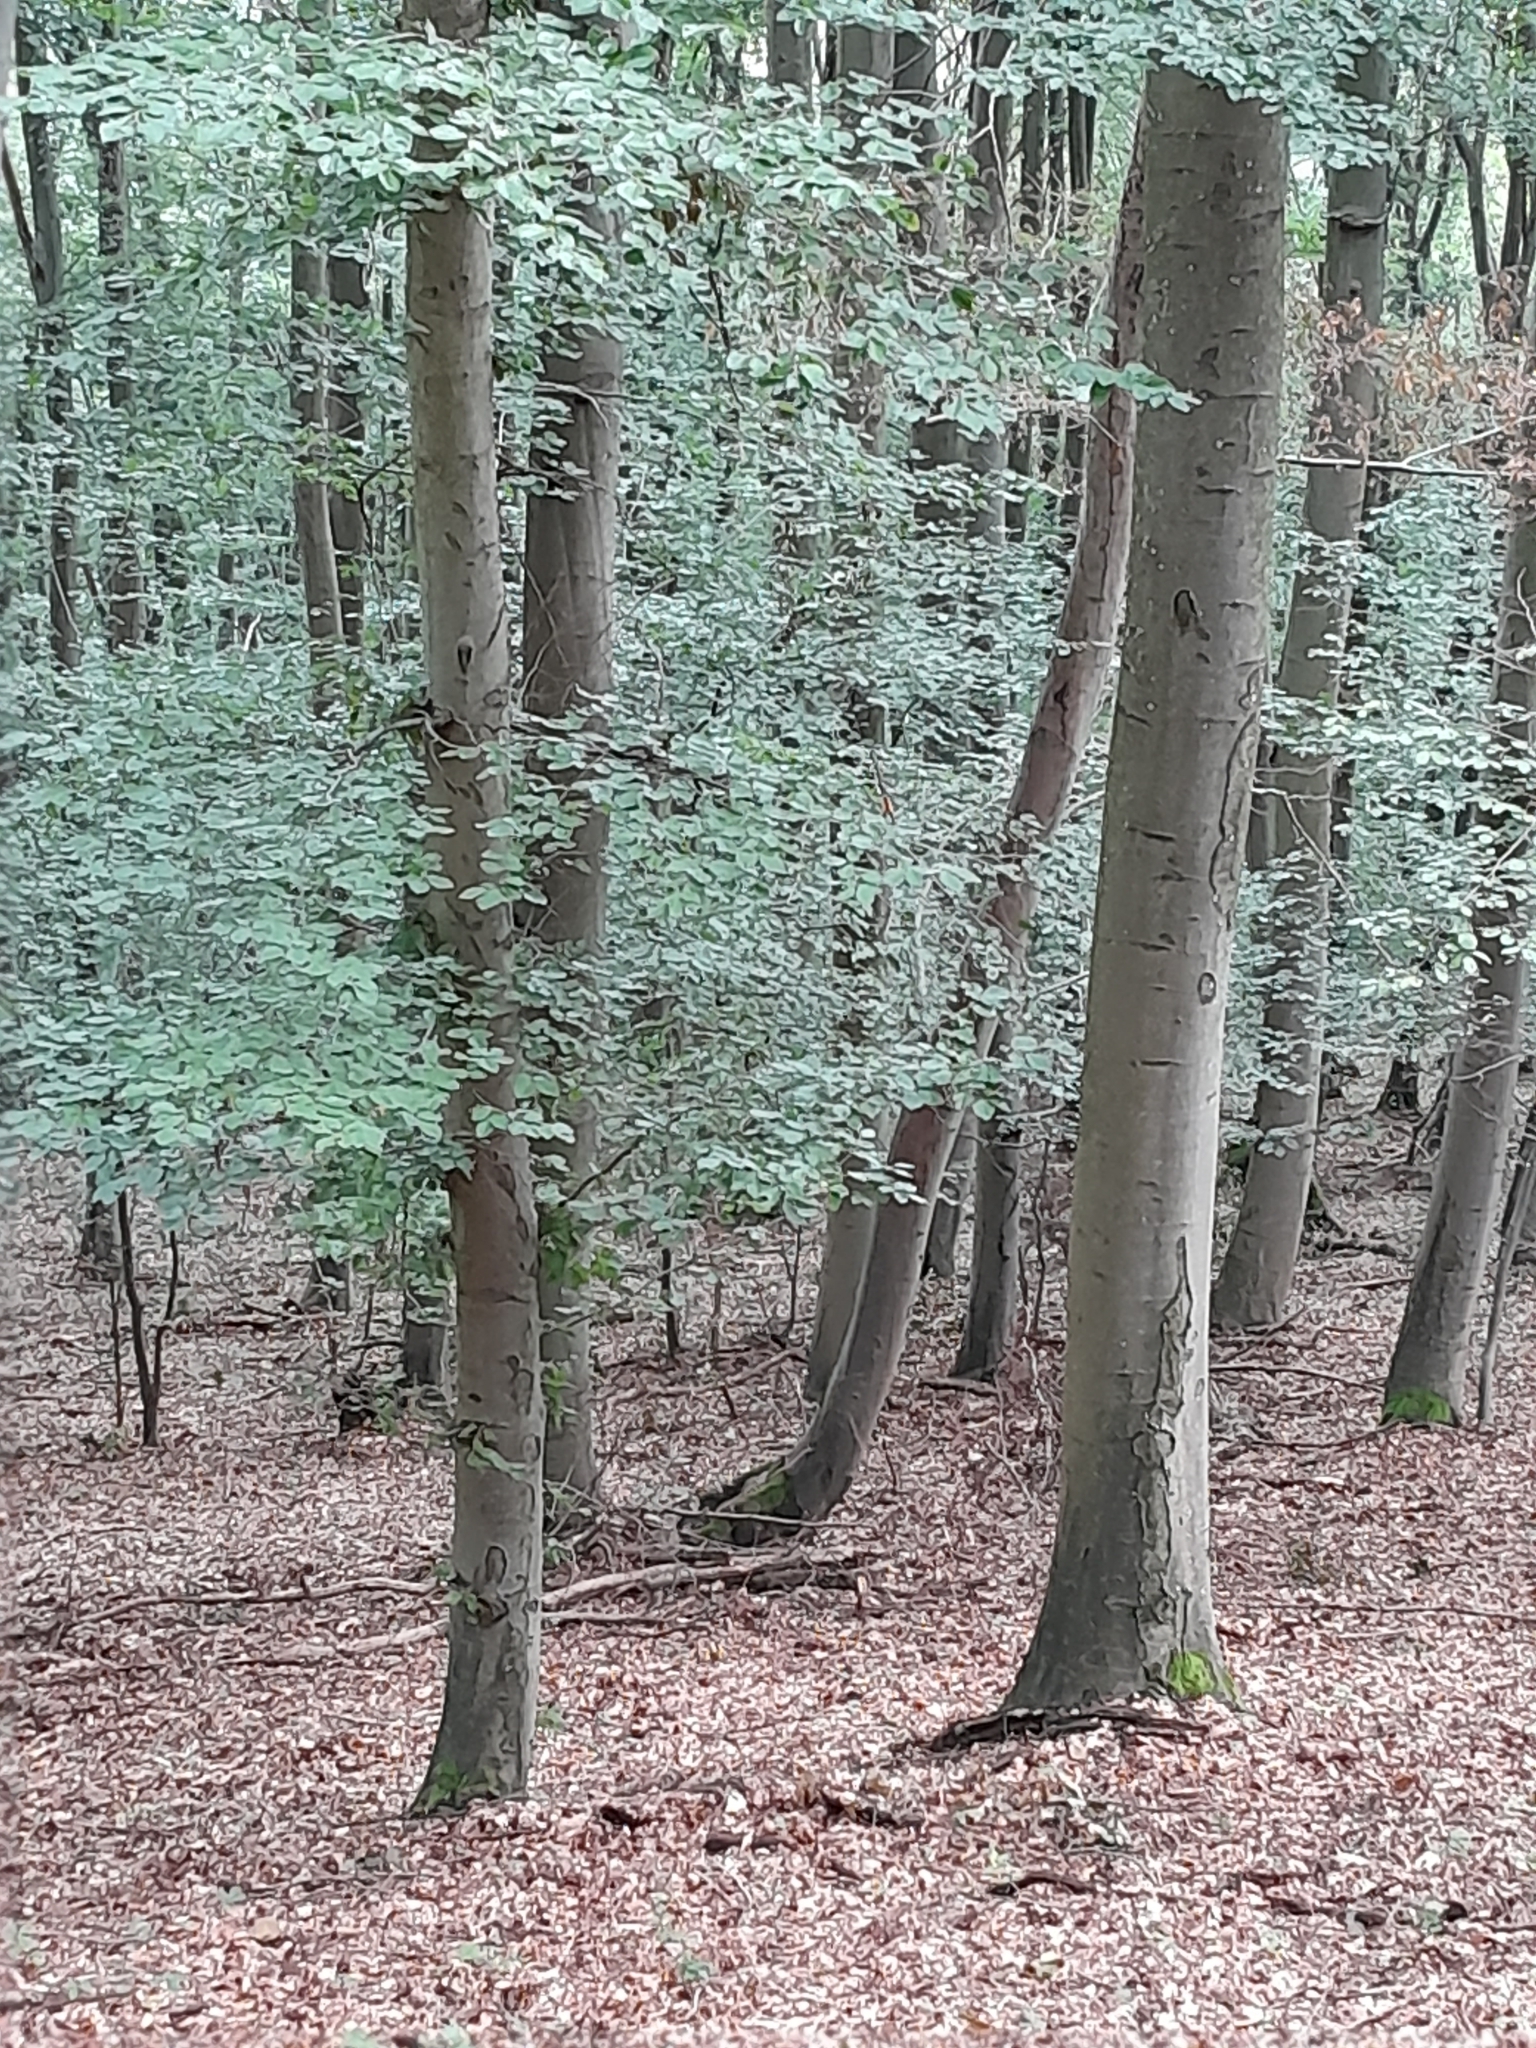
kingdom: Plantae
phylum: Tracheophyta
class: Magnoliopsida
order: Fagales
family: Fagaceae
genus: Fagus
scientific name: Fagus sylvatica
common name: Beech
